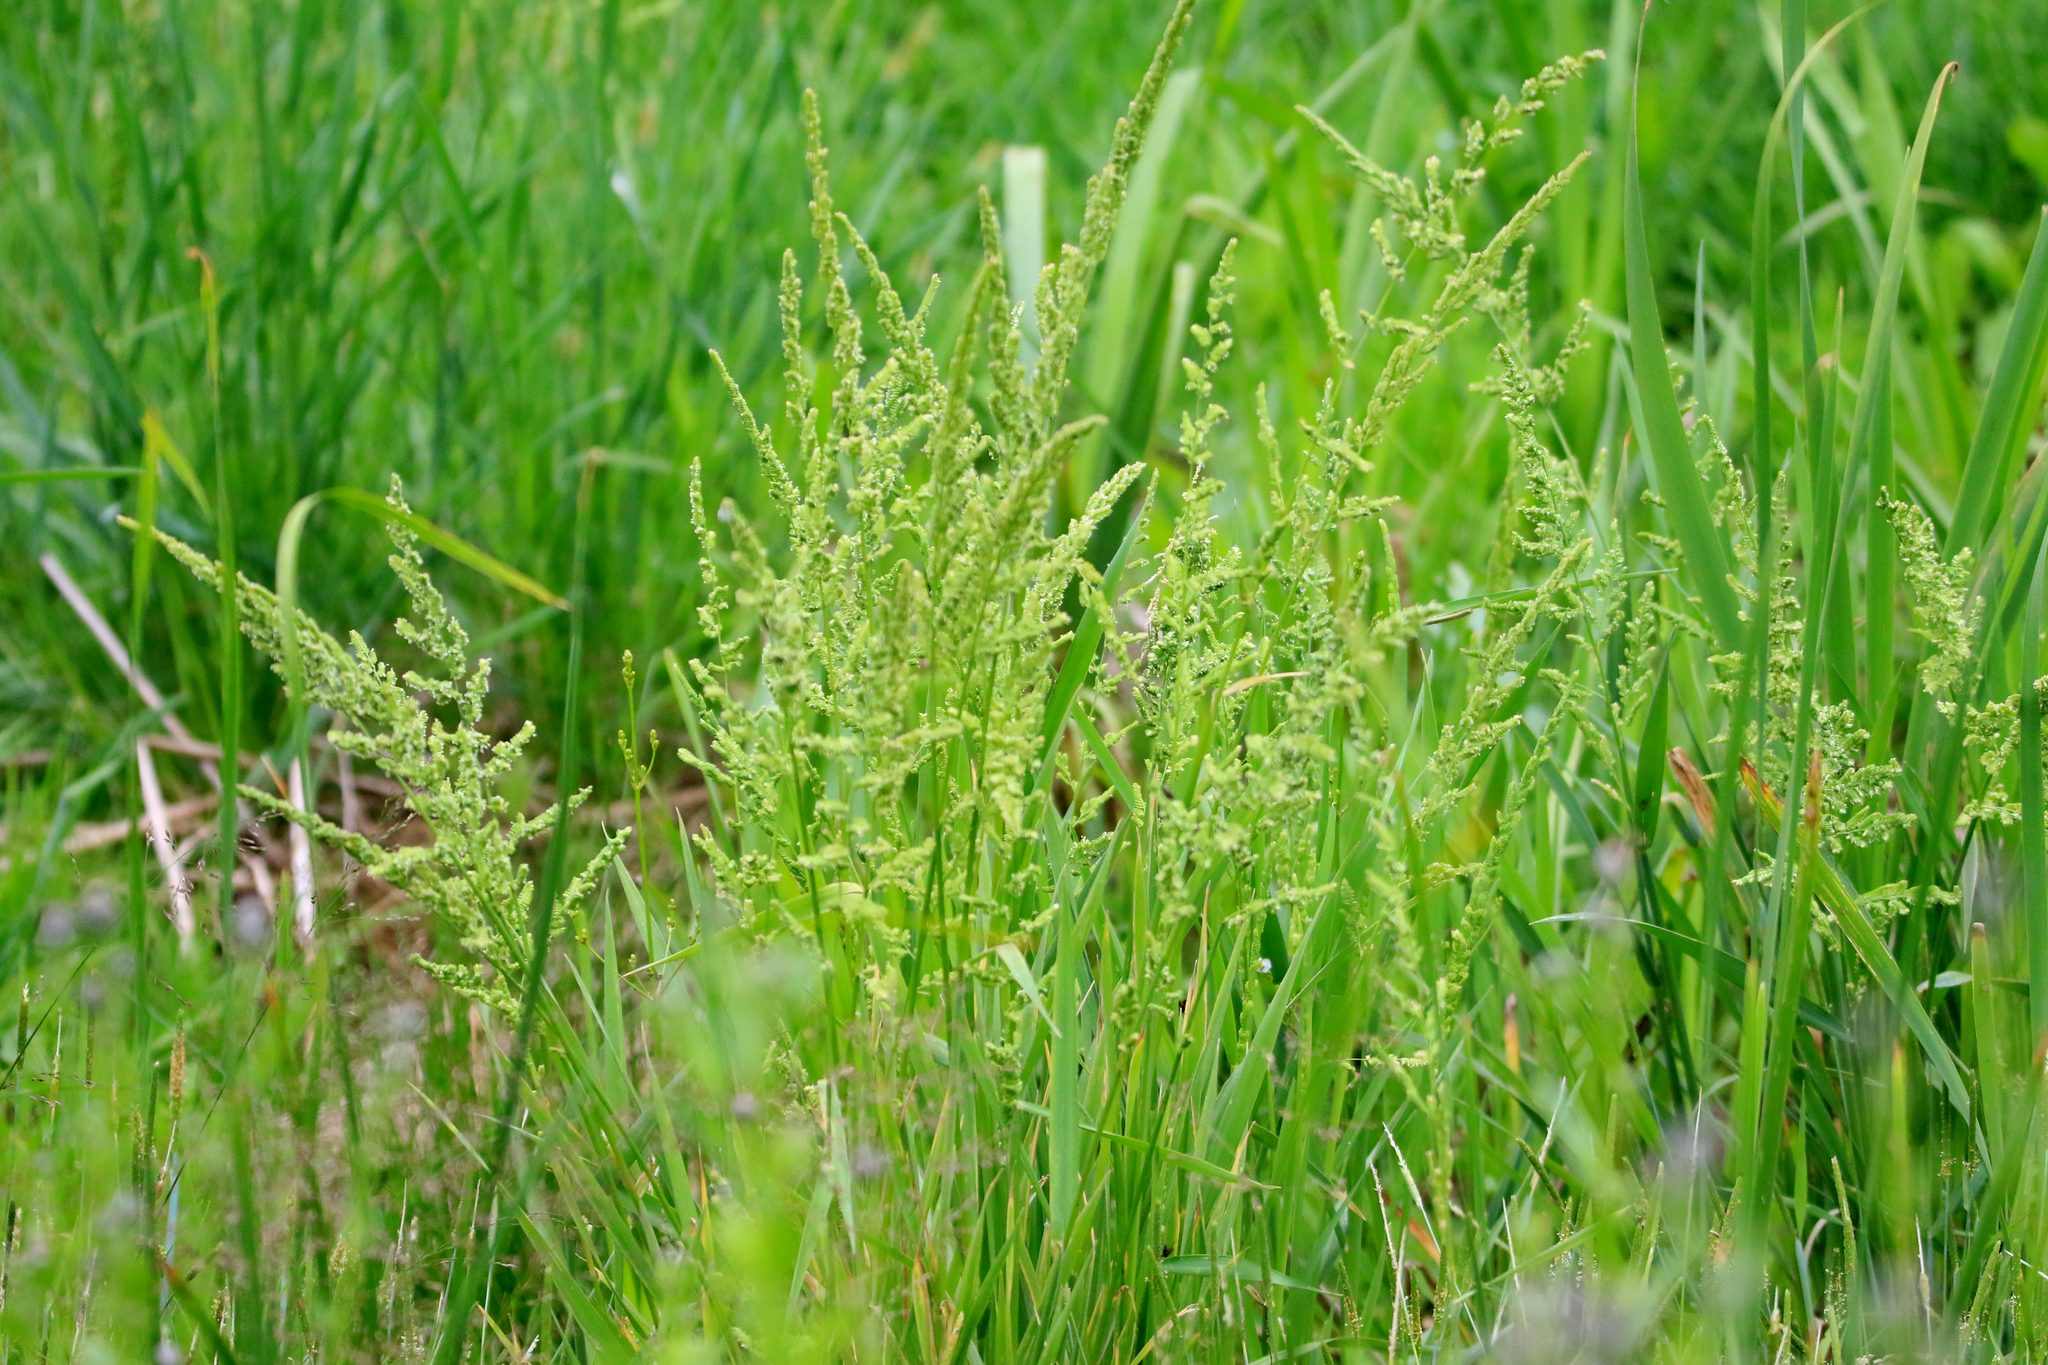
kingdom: Plantae
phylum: Tracheophyta
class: Liliopsida
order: Poales
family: Poaceae
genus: Beckmannia
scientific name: Beckmannia syzigachne
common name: American slough-grass
